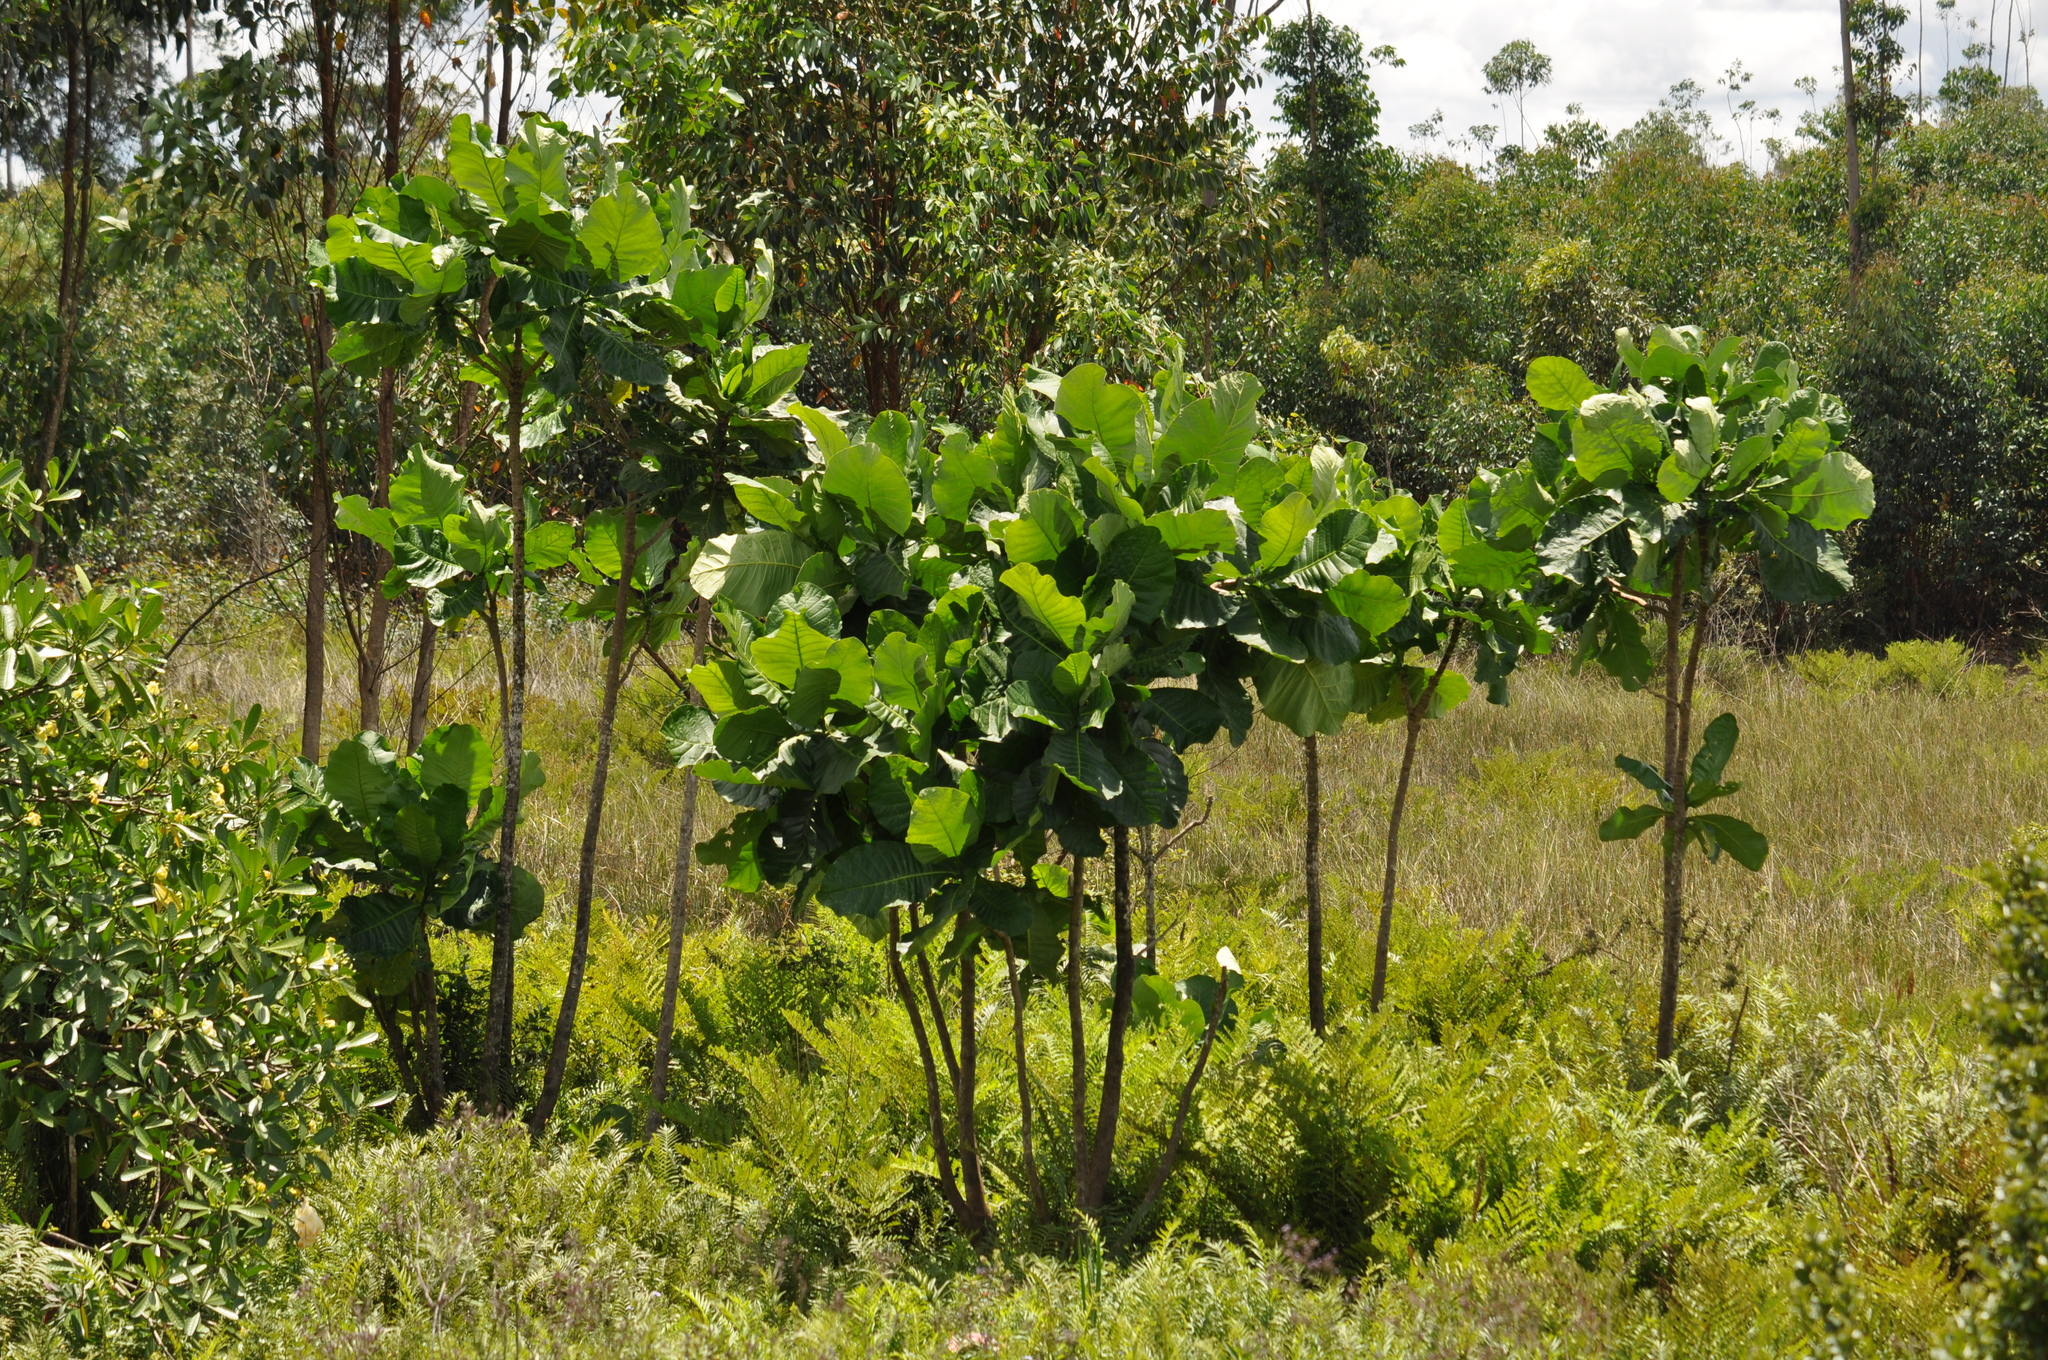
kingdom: Plantae
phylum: Tracheophyta
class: Magnoliopsida
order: Gentianales
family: Gentianaceae
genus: Anthocleista
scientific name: Anthocleista madagascariensis
